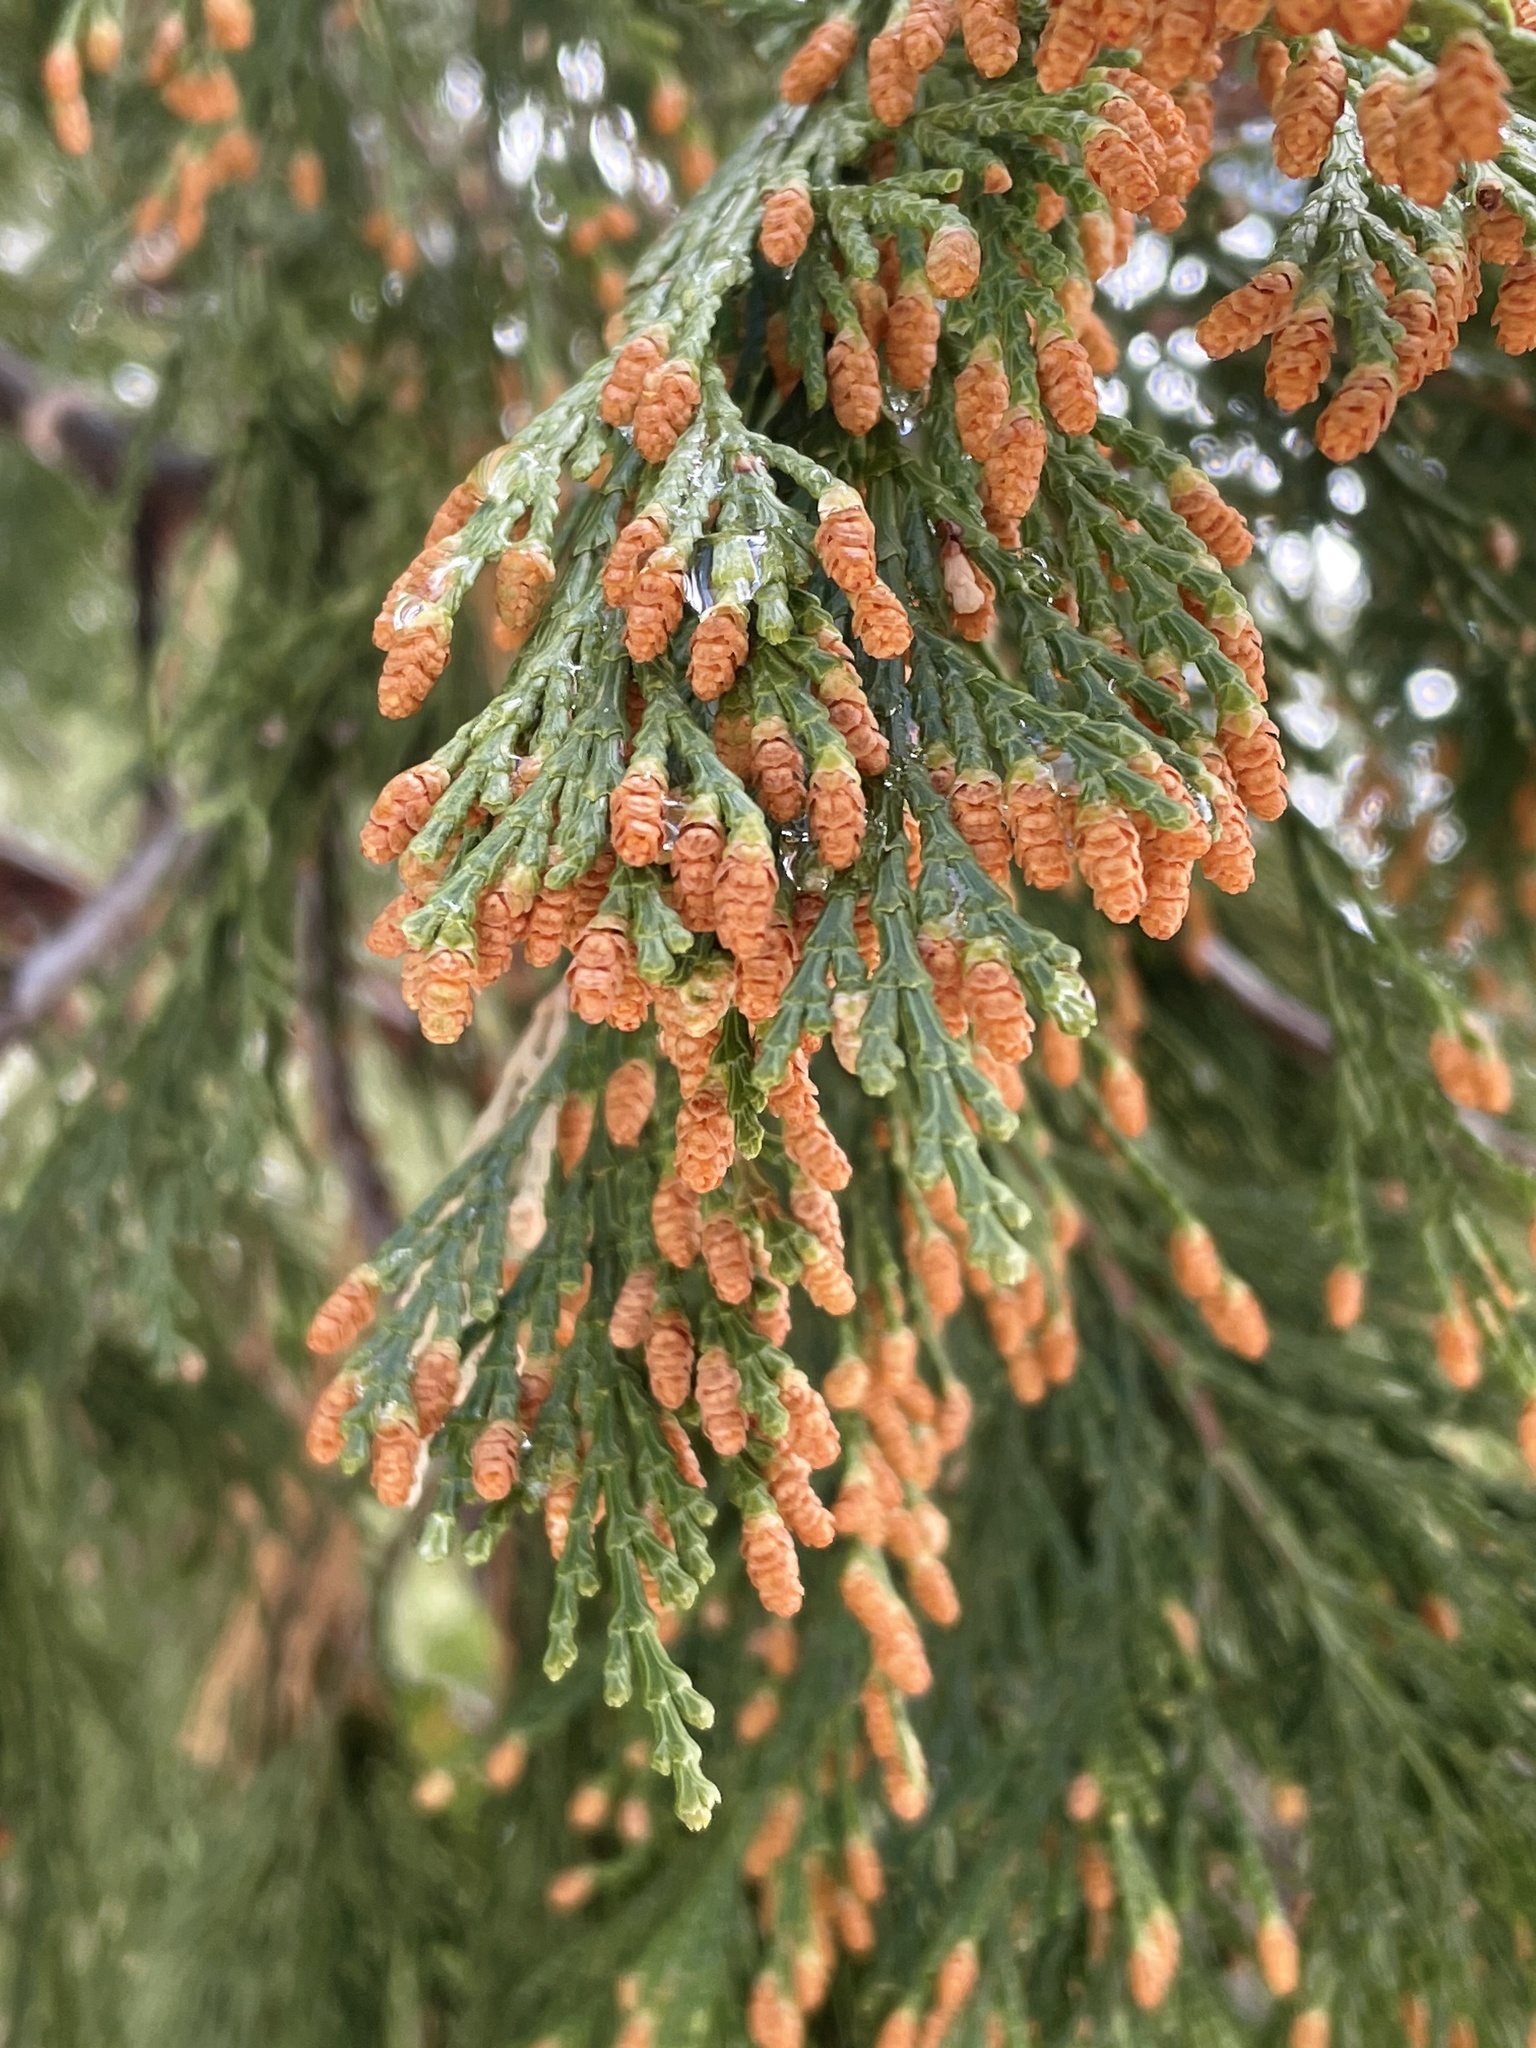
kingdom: Plantae
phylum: Tracheophyta
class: Pinopsida
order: Pinales
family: Cupressaceae
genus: Calocedrus
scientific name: Calocedrus decurrens
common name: Californian incense-cedar
